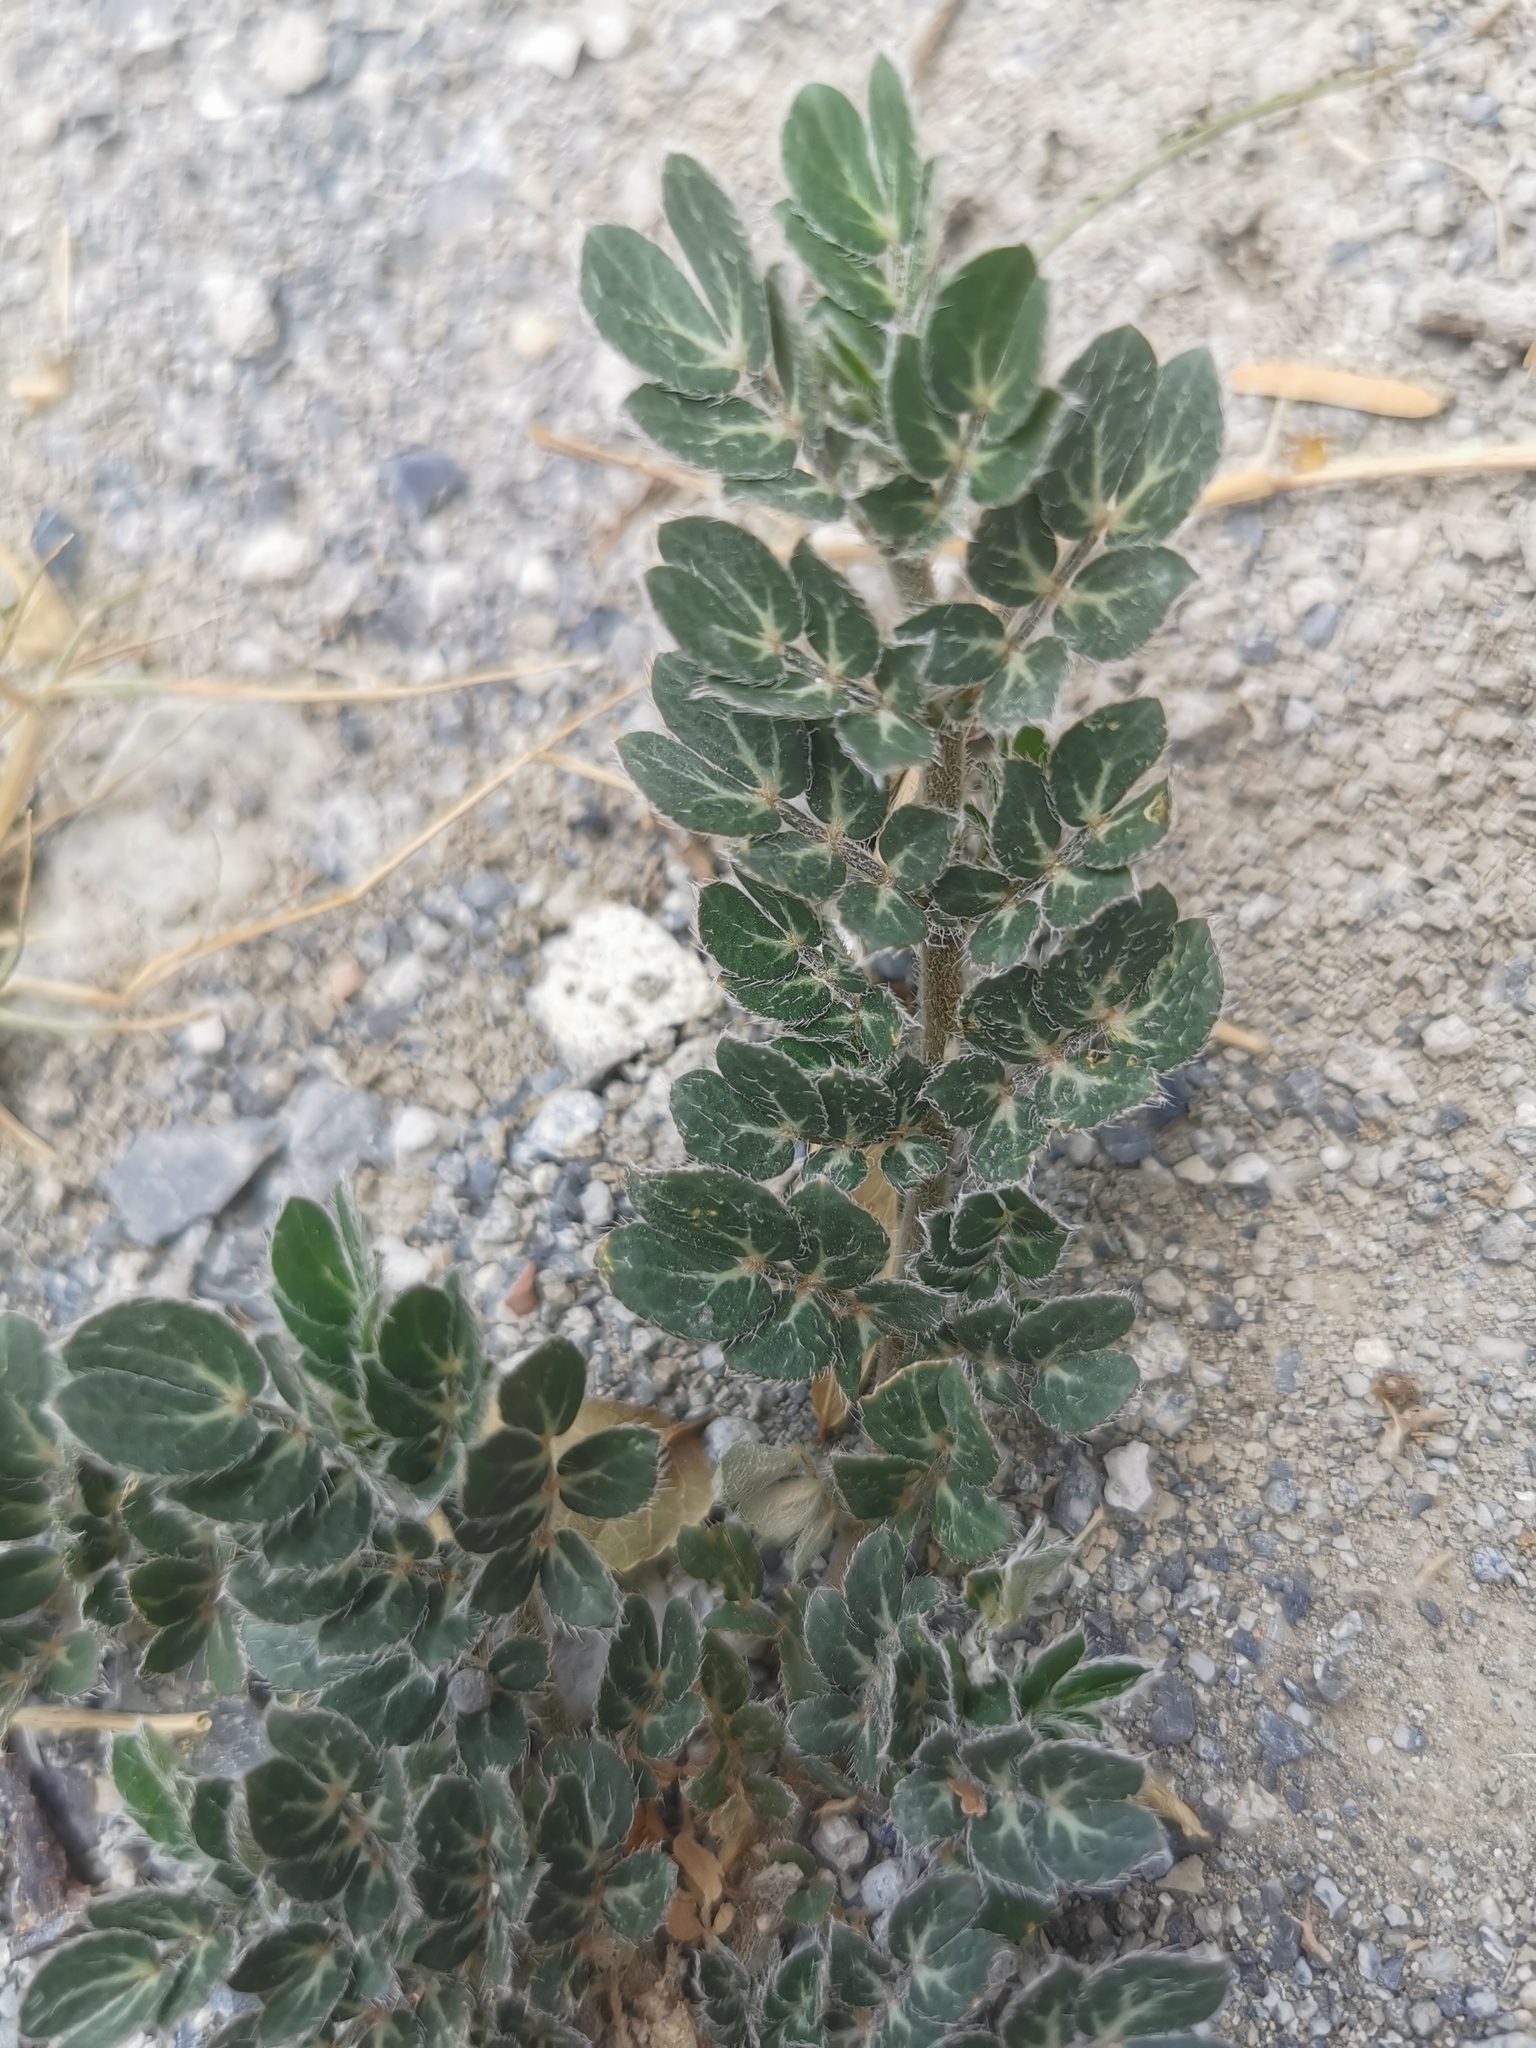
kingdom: Plantae
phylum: Tracheophyta
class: Magnoliopsida
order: Zygophyllales
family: Zygophyllaceae
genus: Kallstroemia
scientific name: Kallstroemia hirsutissima
